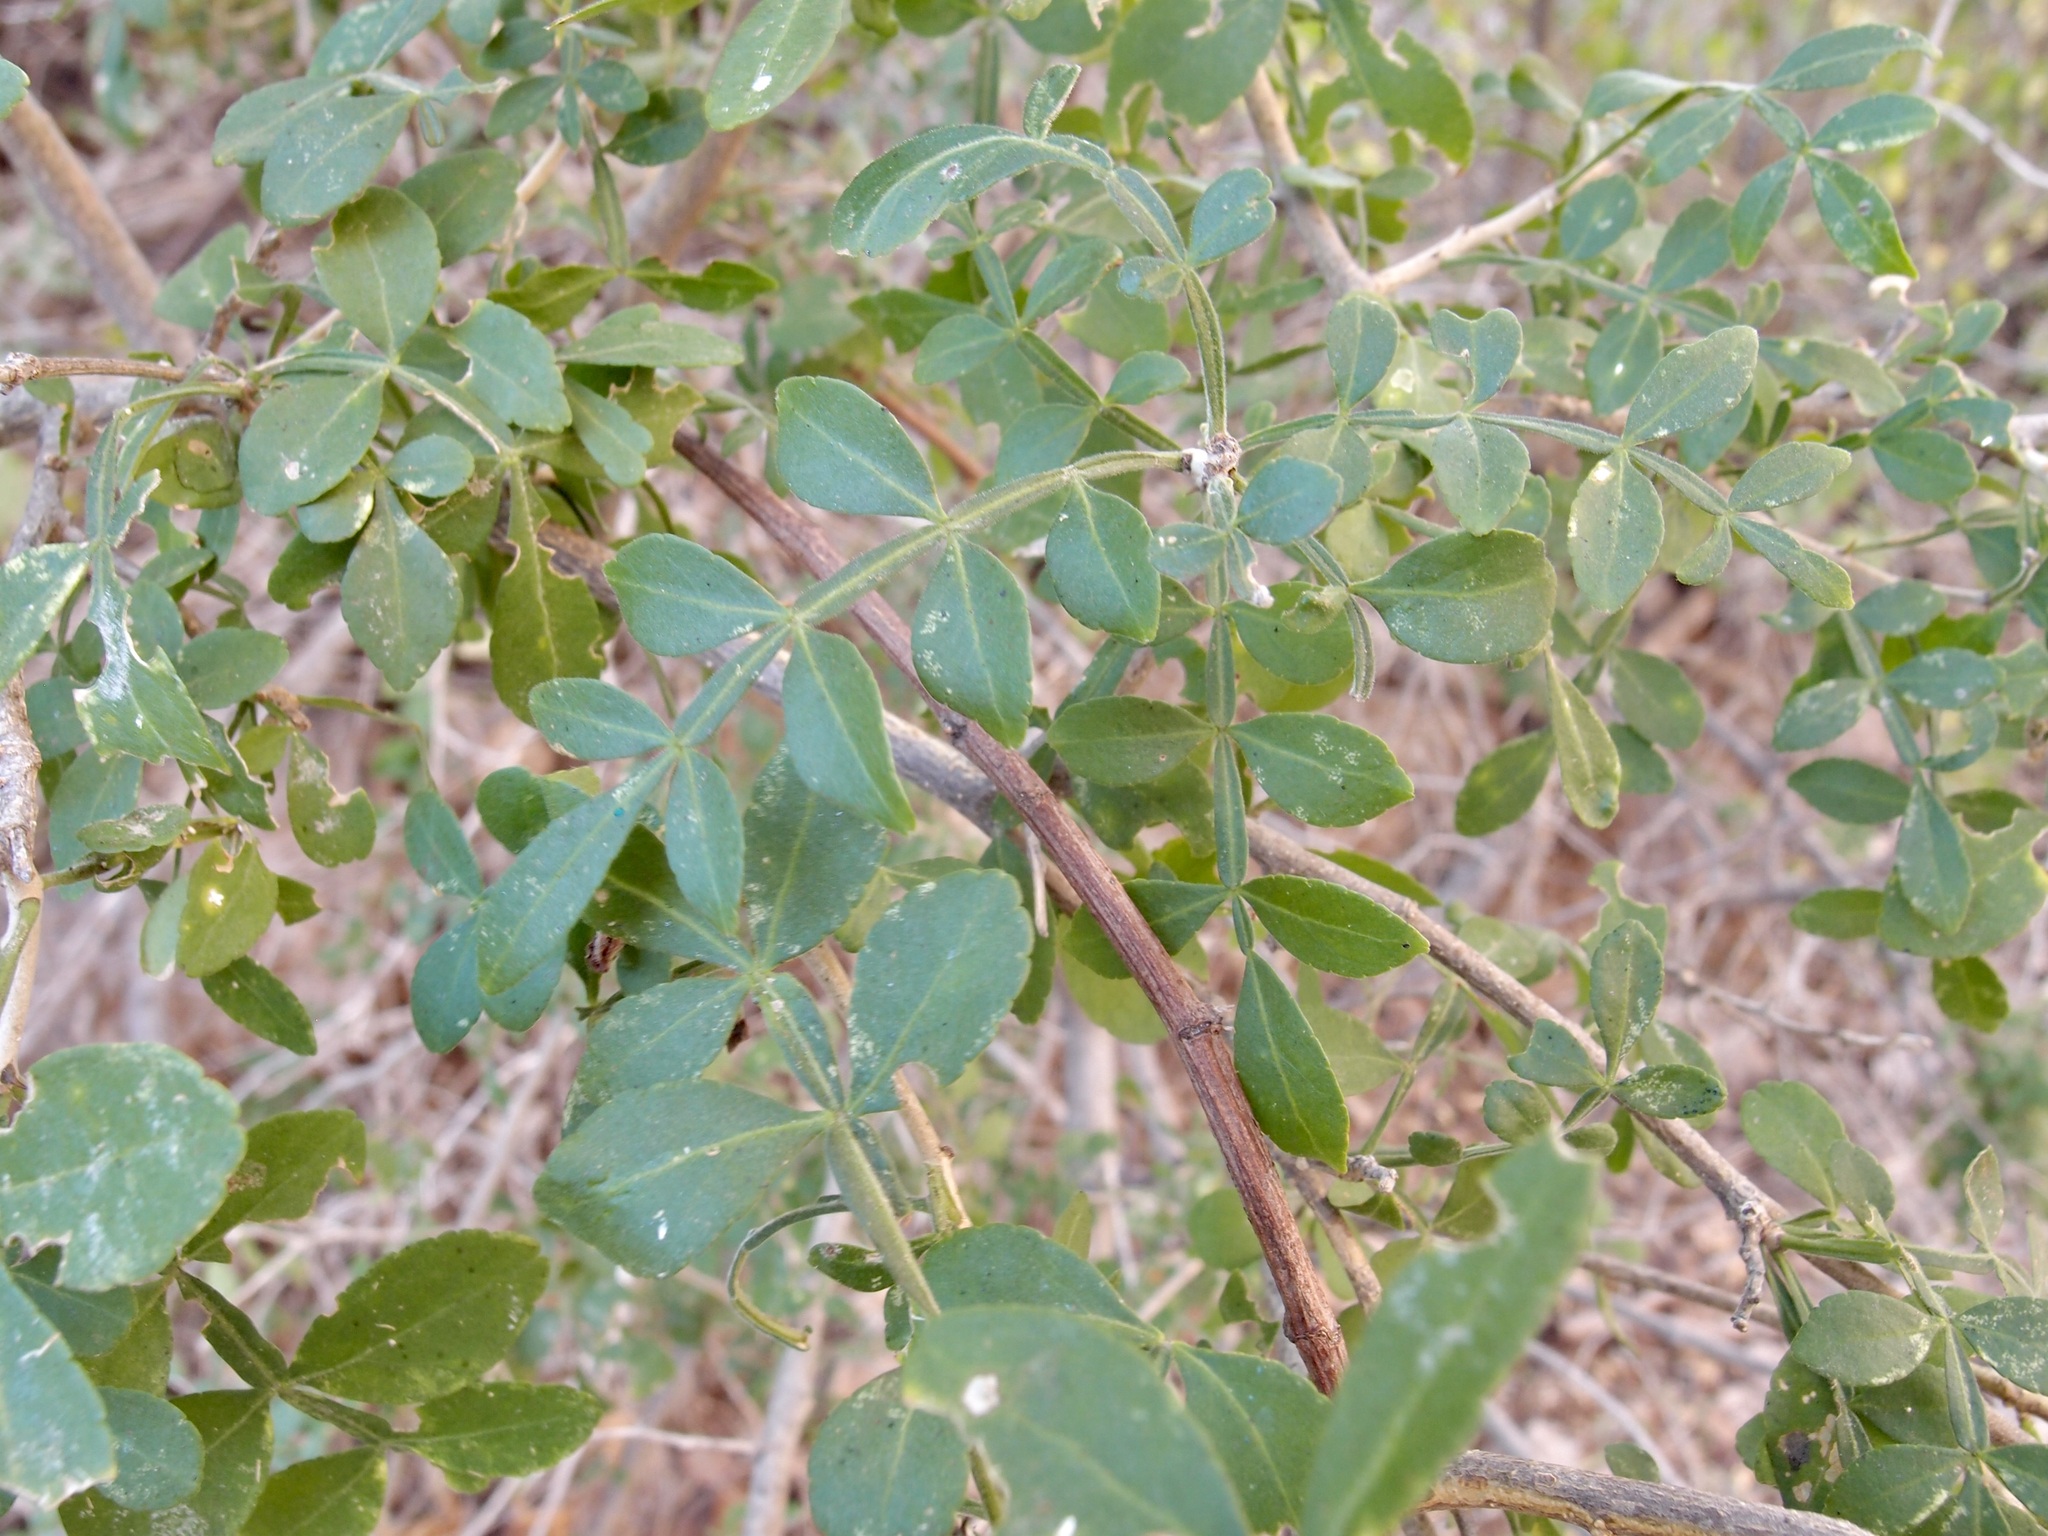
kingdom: Plantae
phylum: Tracheophyta
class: Magnoliopsida
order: Sapindales
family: Rutaceae
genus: Zanthoxylum
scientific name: Zanthoxylum fagara
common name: Lime prickly-ash
